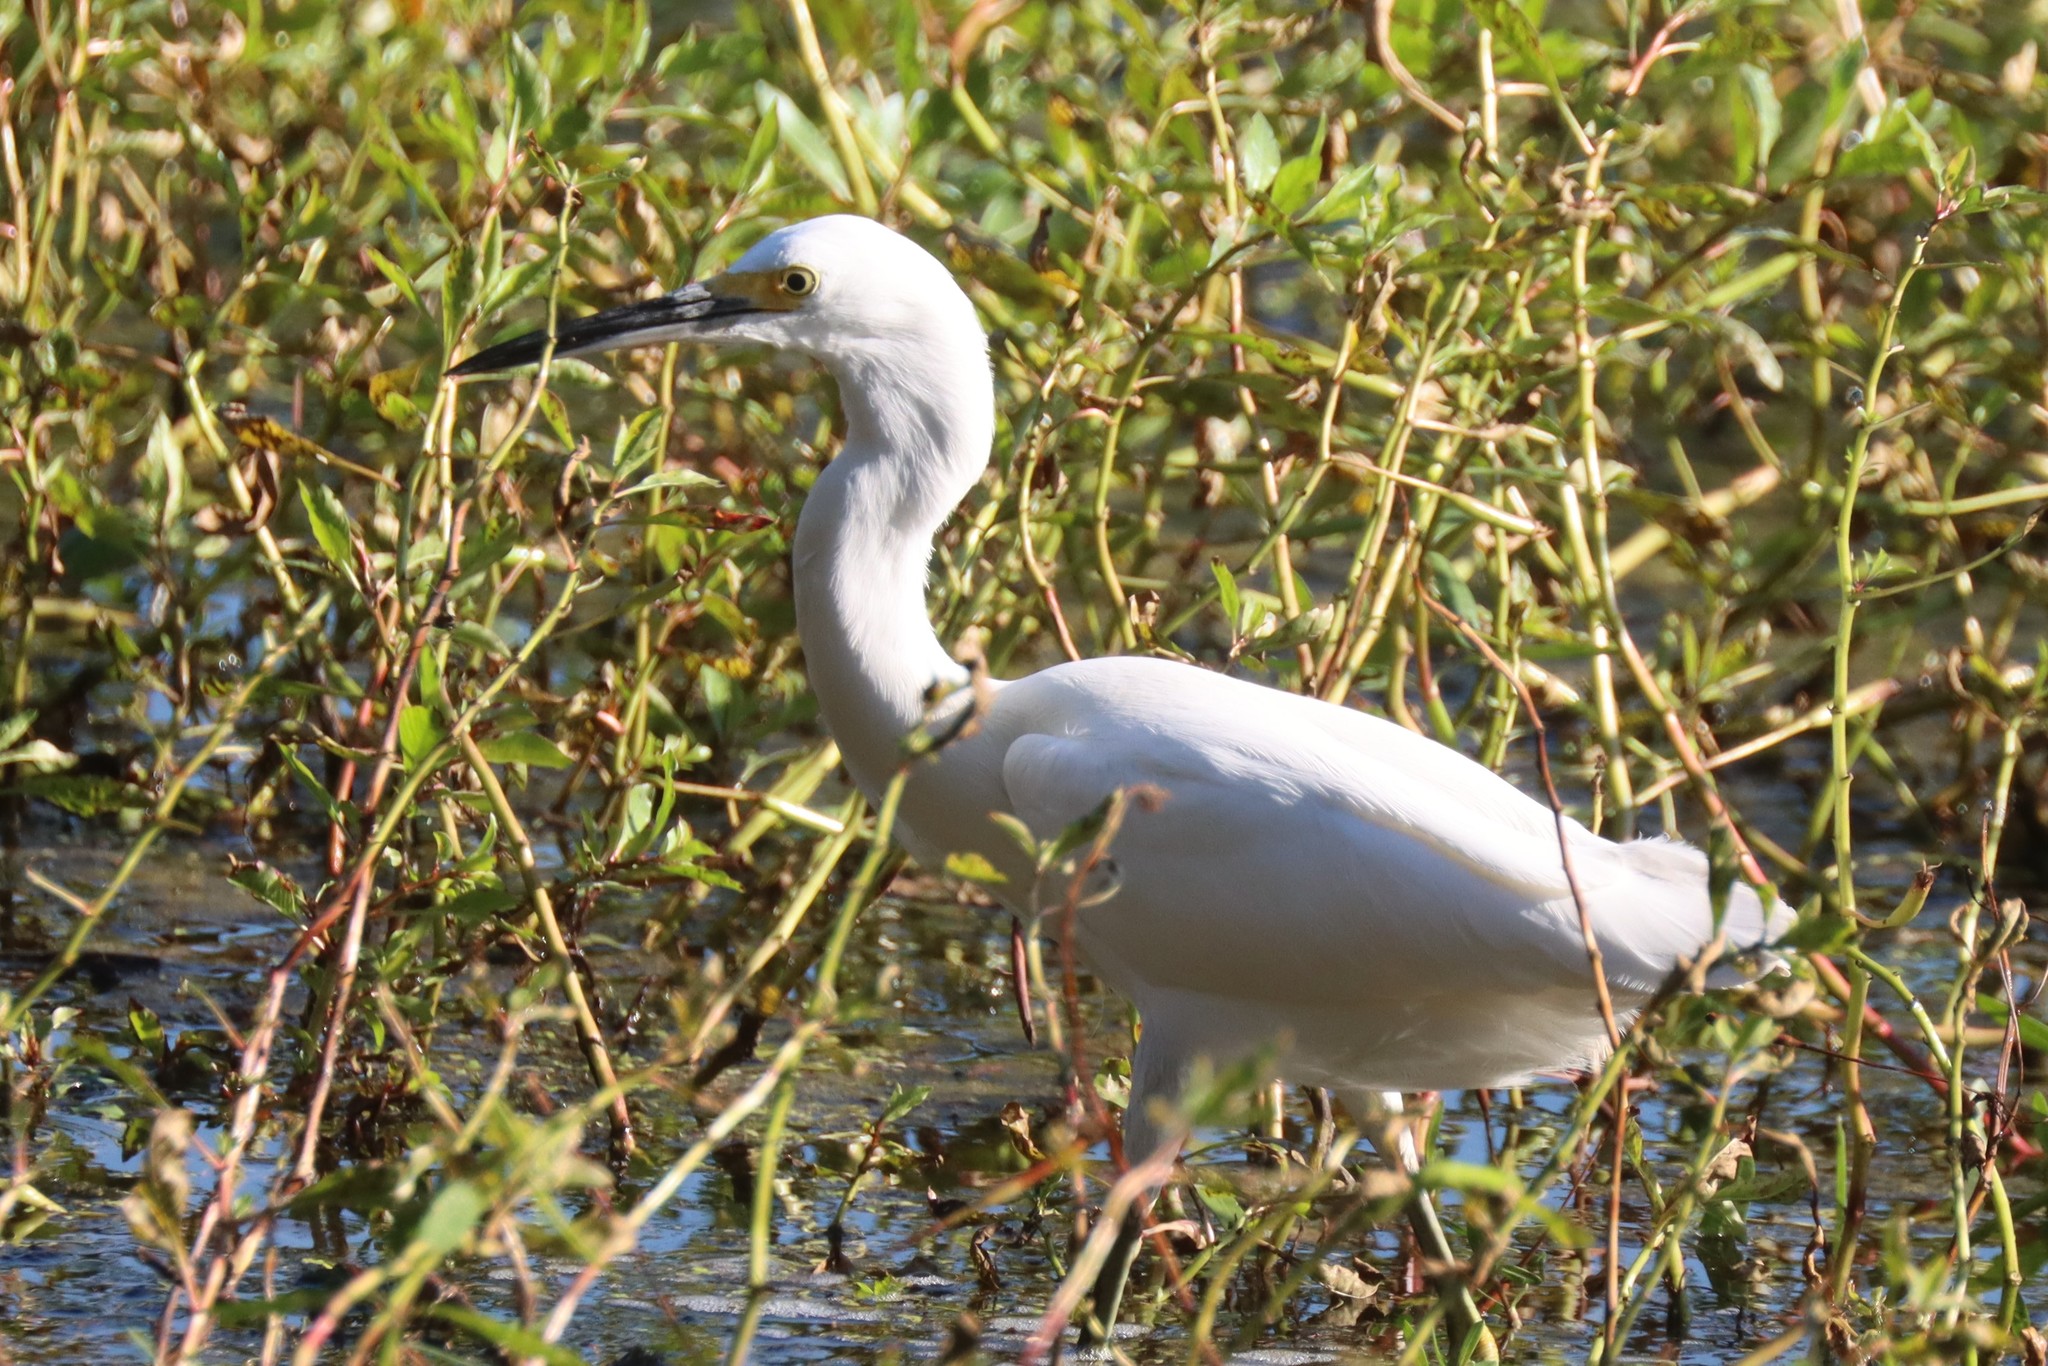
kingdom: Animalia
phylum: Chordata
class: Aves
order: Pelecaniformes
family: Ardeidae
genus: Egretta
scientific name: Egretta thula
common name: Snowy egret
